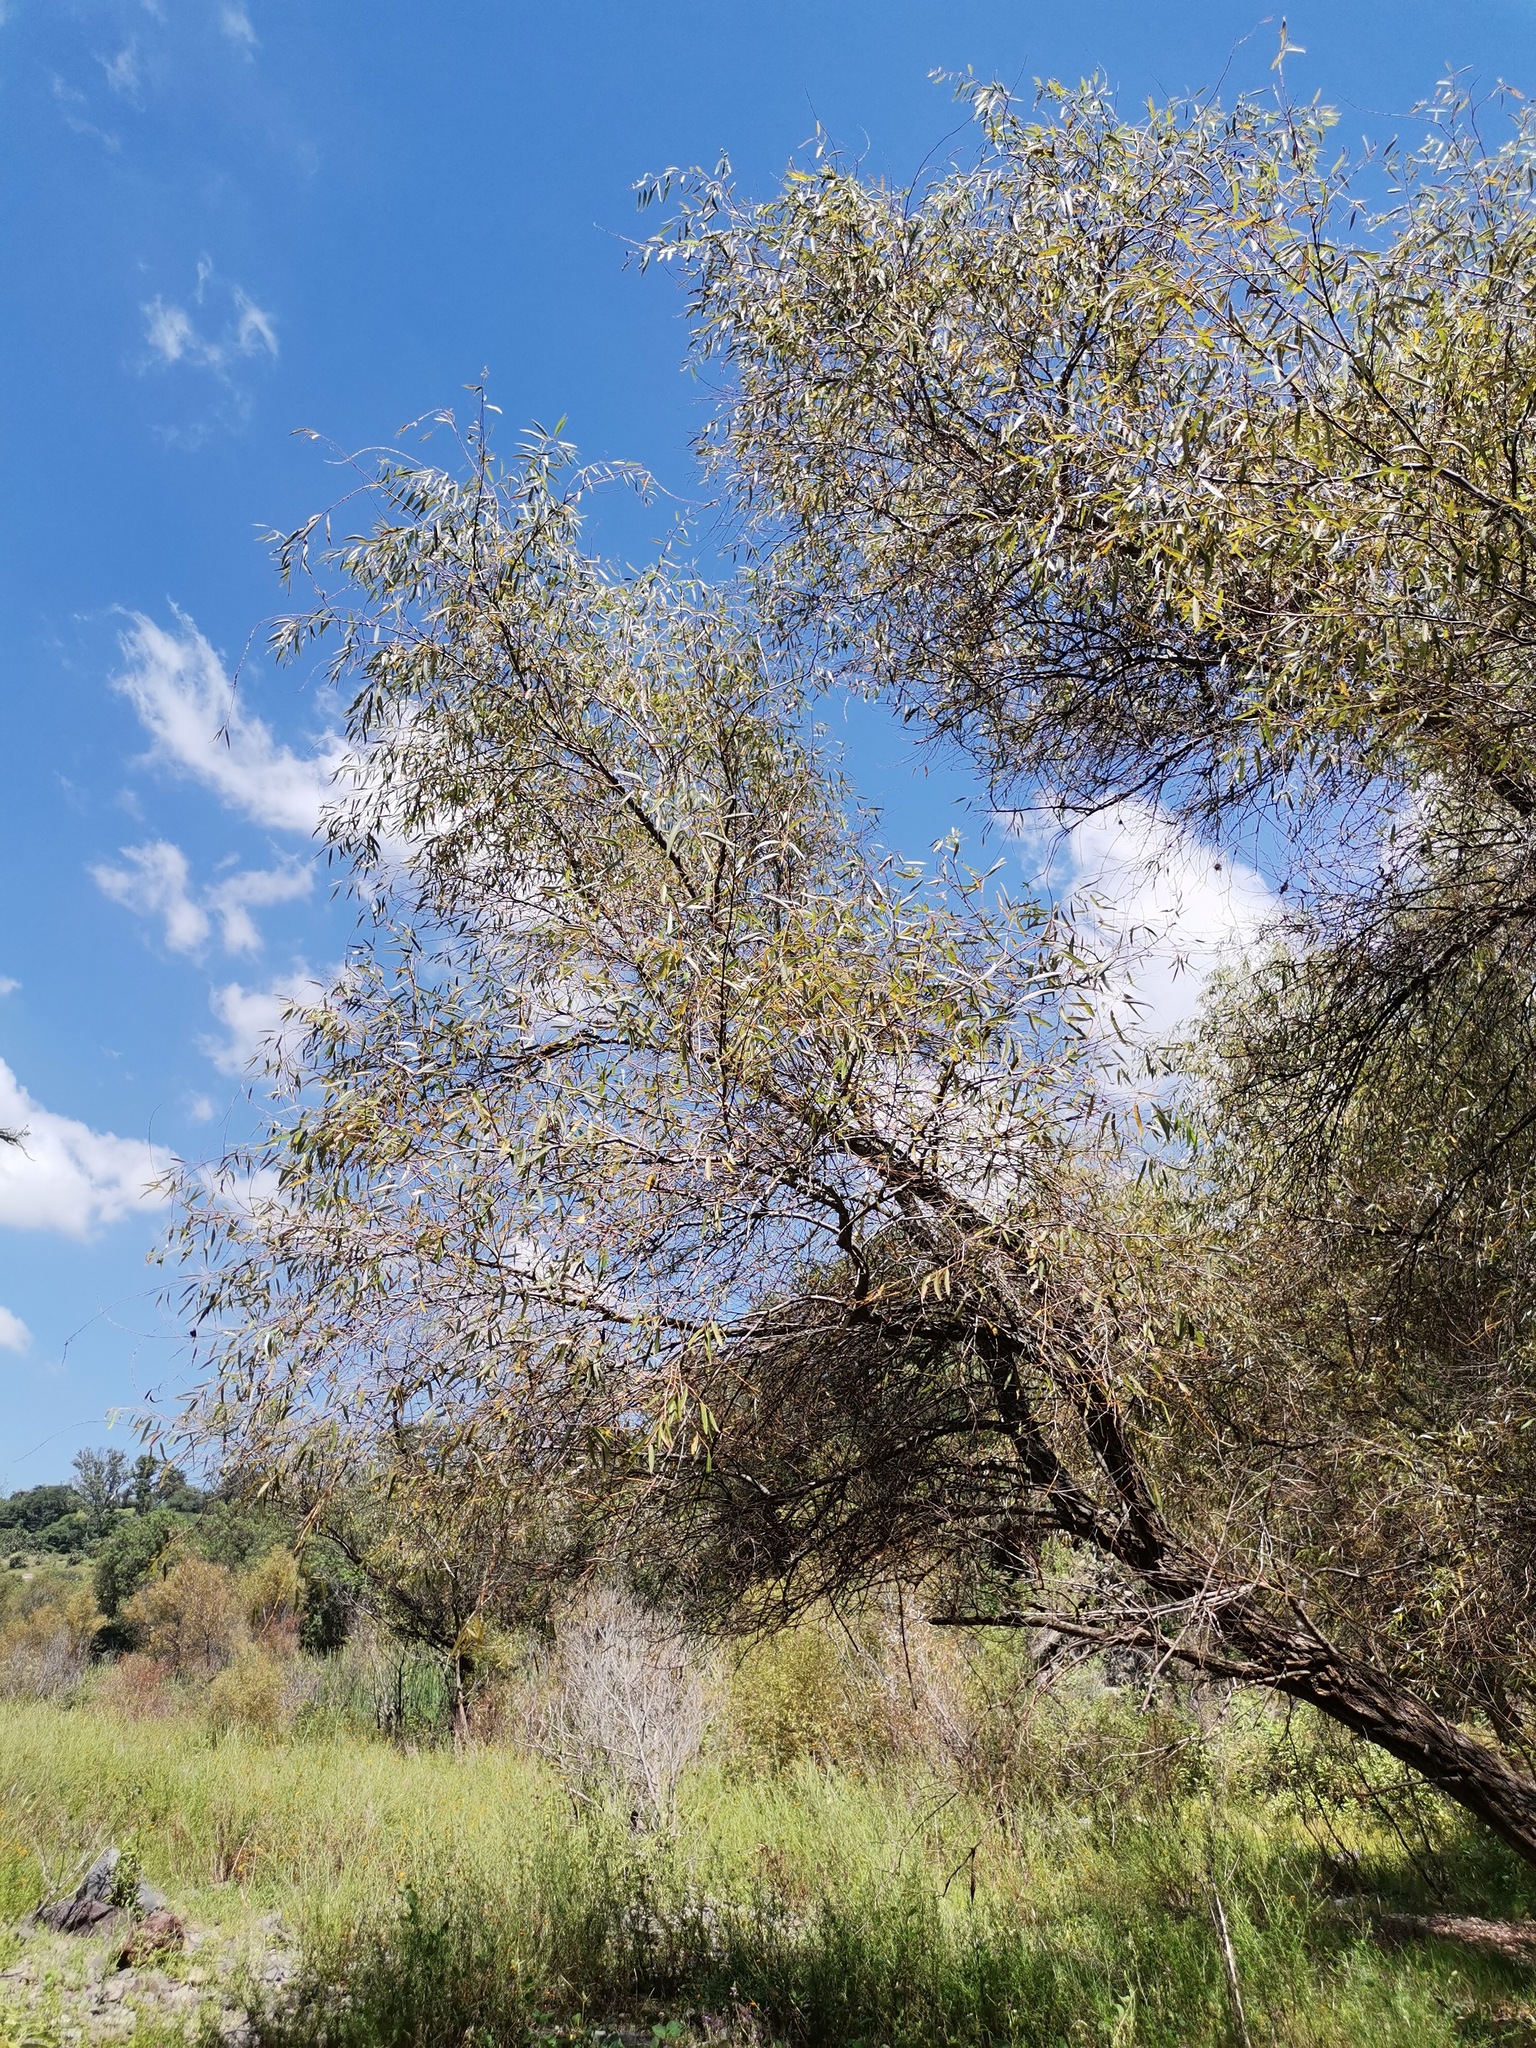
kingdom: Plantae
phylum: Tracheophyta
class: Magnoliopsida
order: Malpighiales
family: Salicaceae
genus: Salix
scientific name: Salix bonplandiana
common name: Bonpland’s willow
